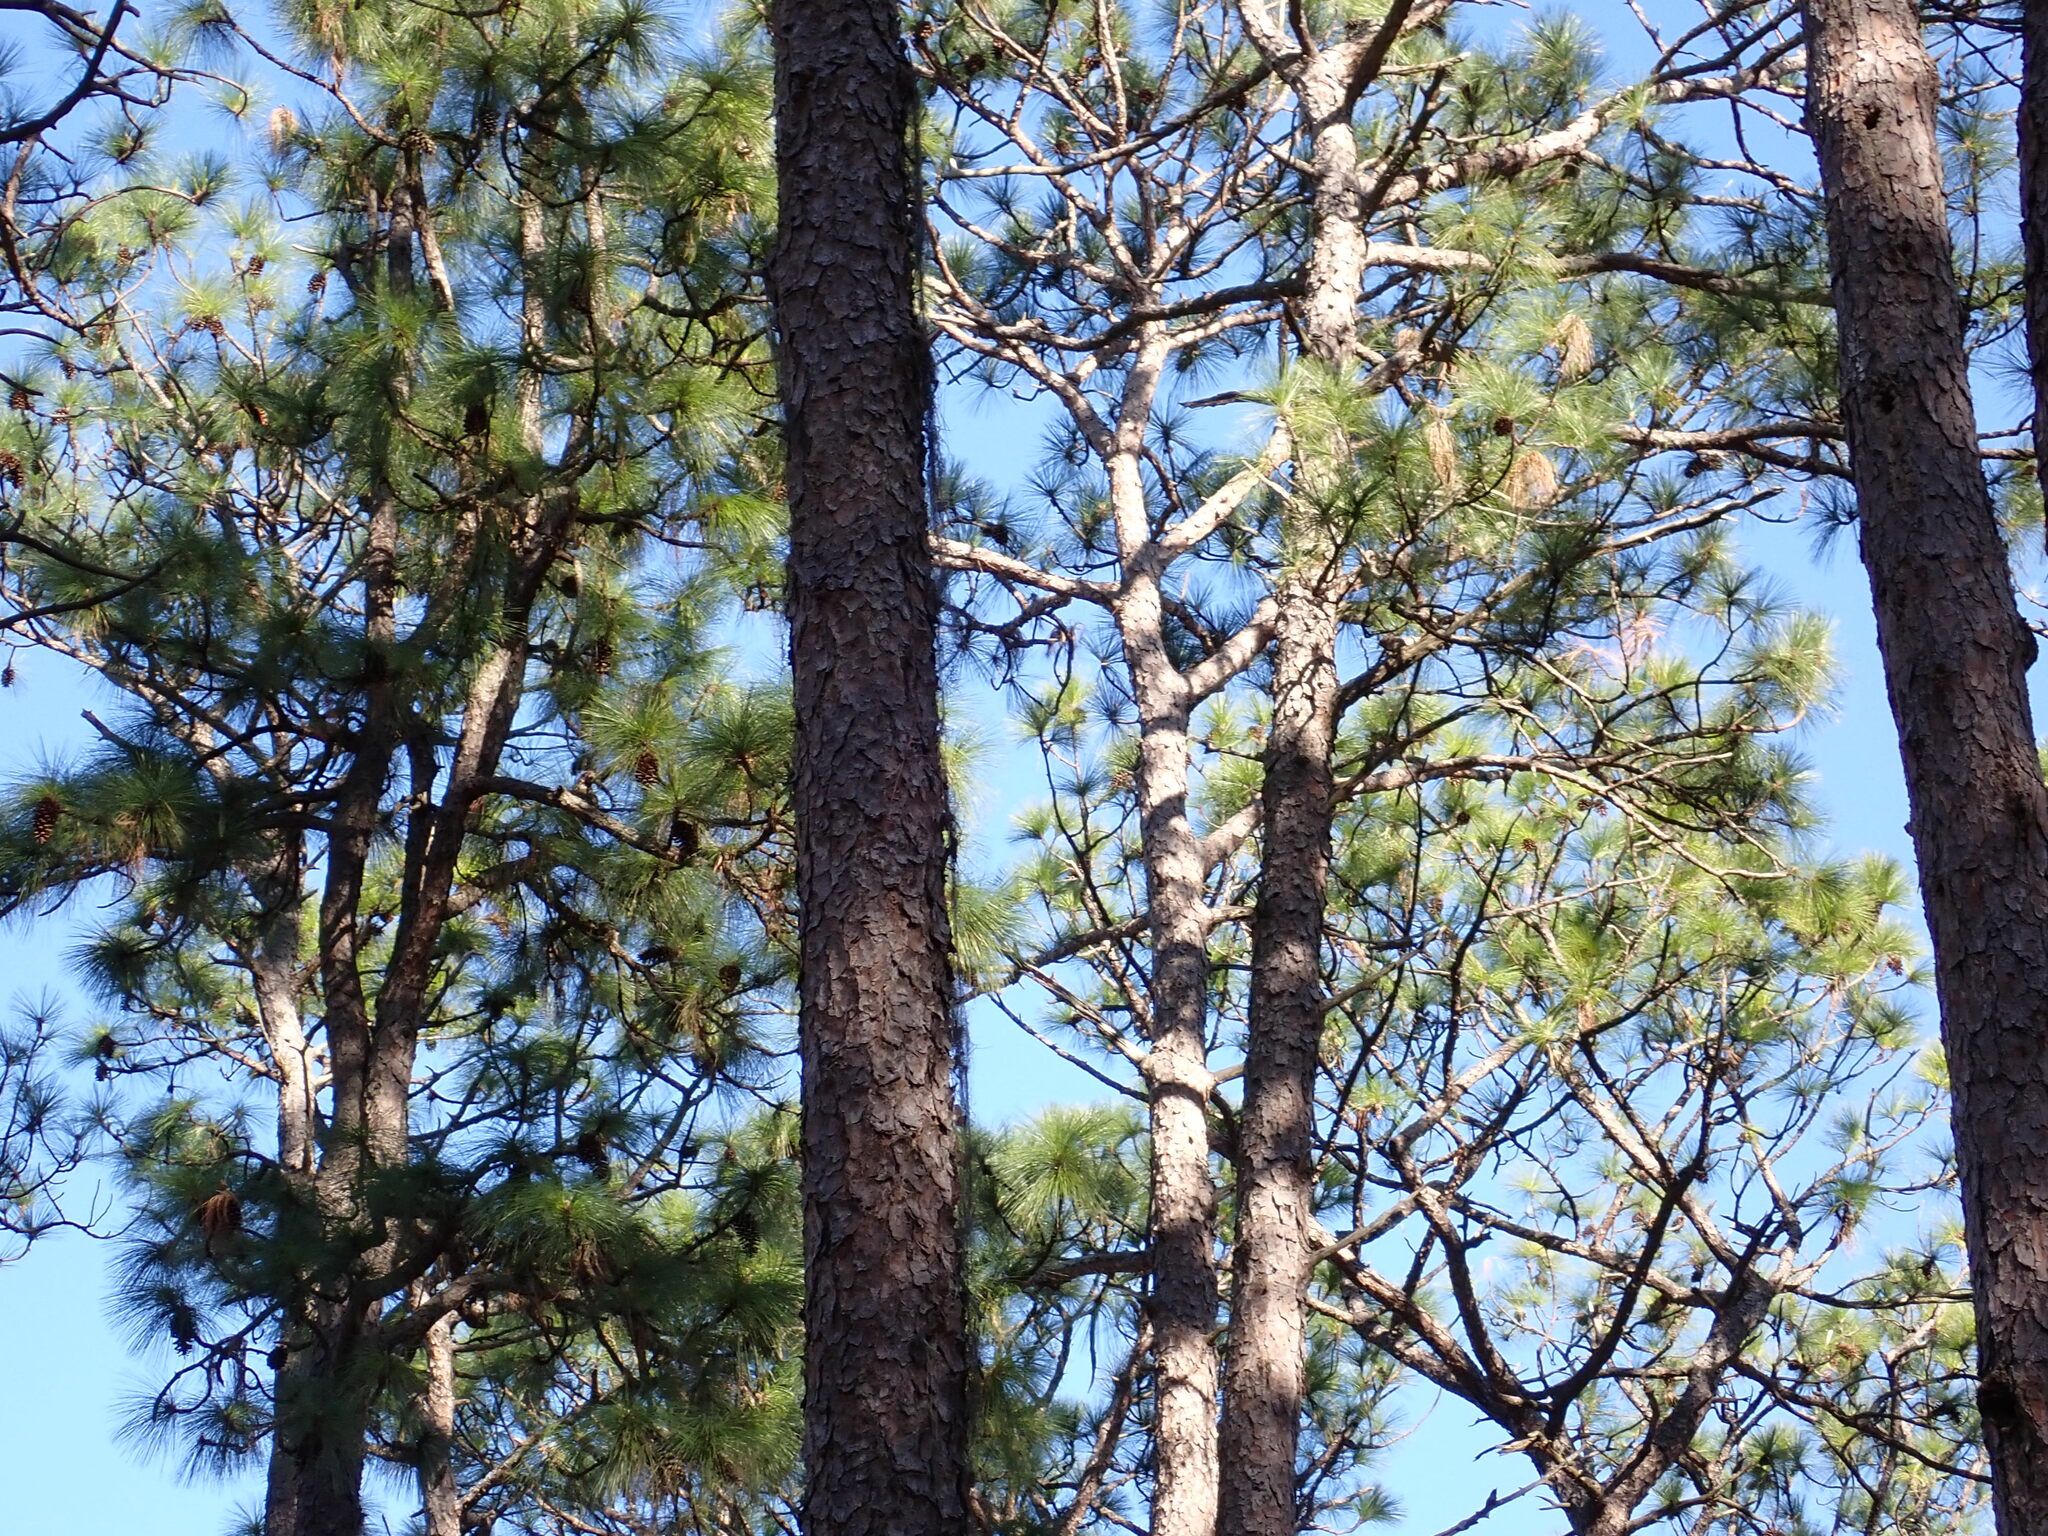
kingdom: Plantae
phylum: Tracheophyta
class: Pinopsida
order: Pinales
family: Pinaceae
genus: Pinus
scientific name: Pinus palustris
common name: Longleaf pine
